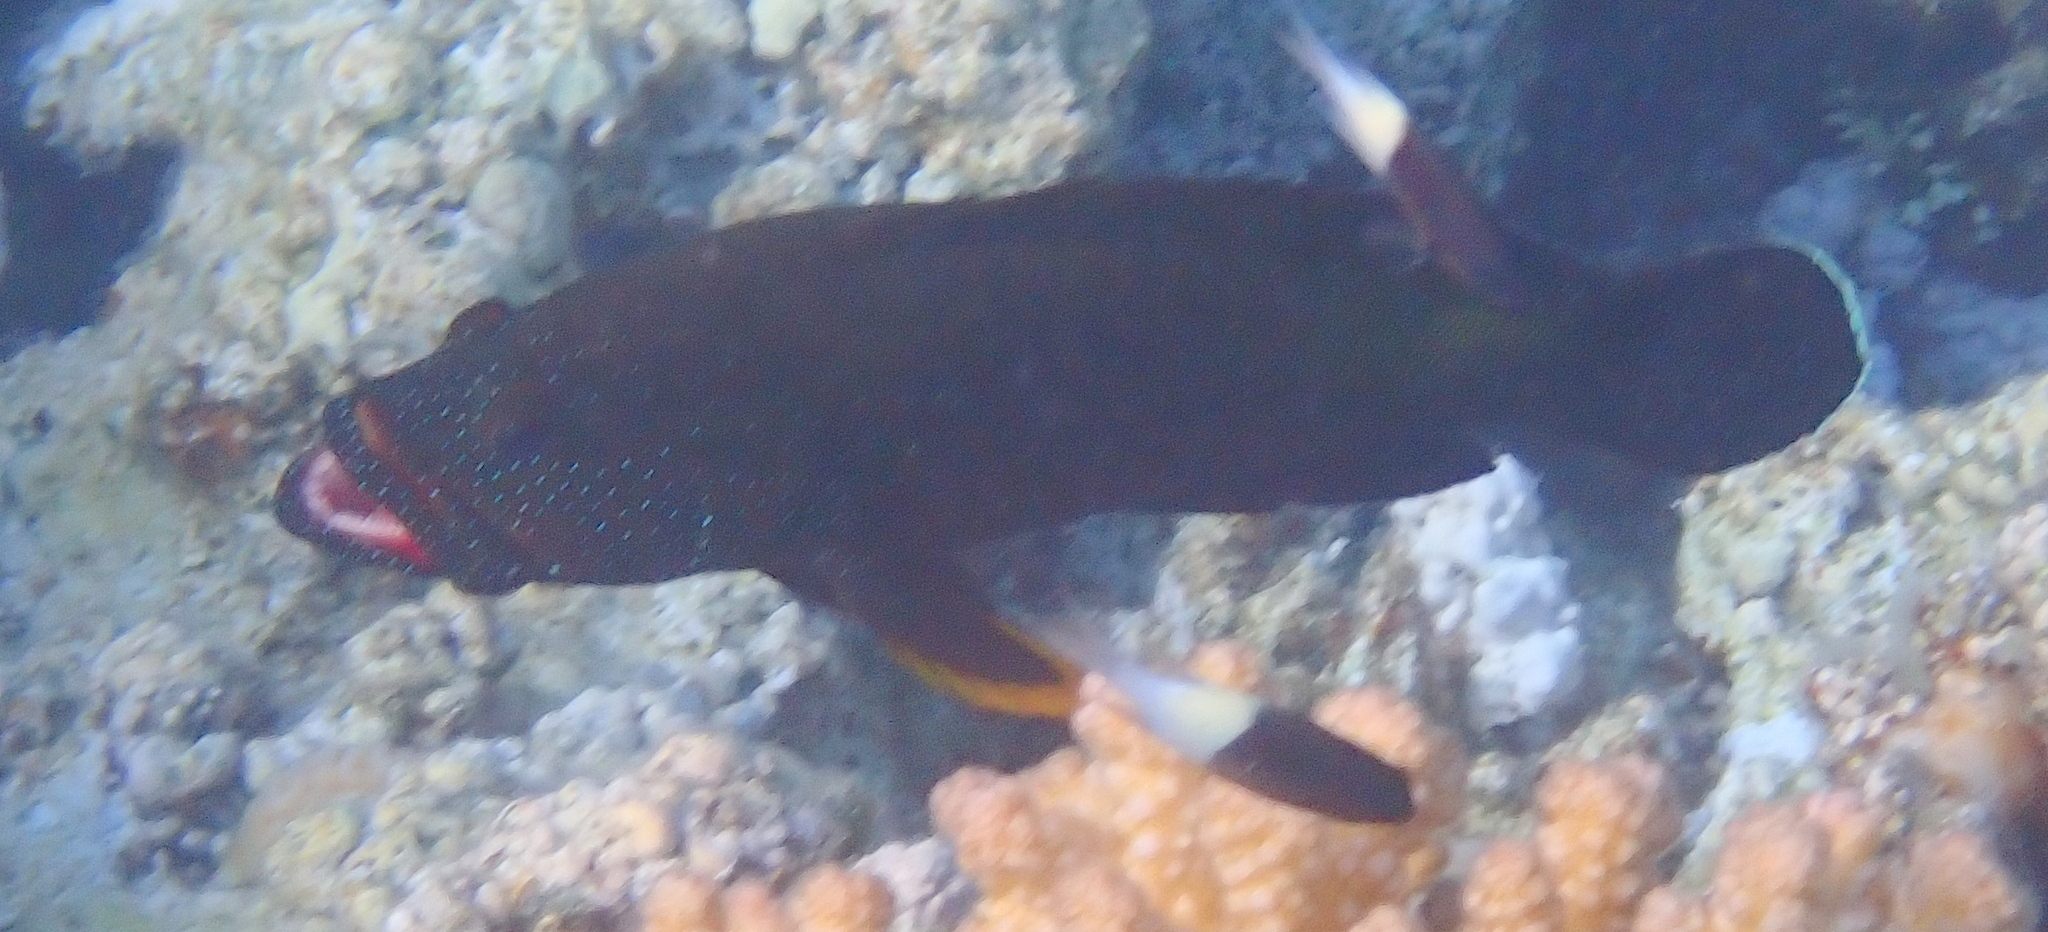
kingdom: Animalia
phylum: Chordata
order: Perciformes
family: Serranidae
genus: Cephalopholis
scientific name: Cephalopholis hemistiktos
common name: Halfspotted hind
